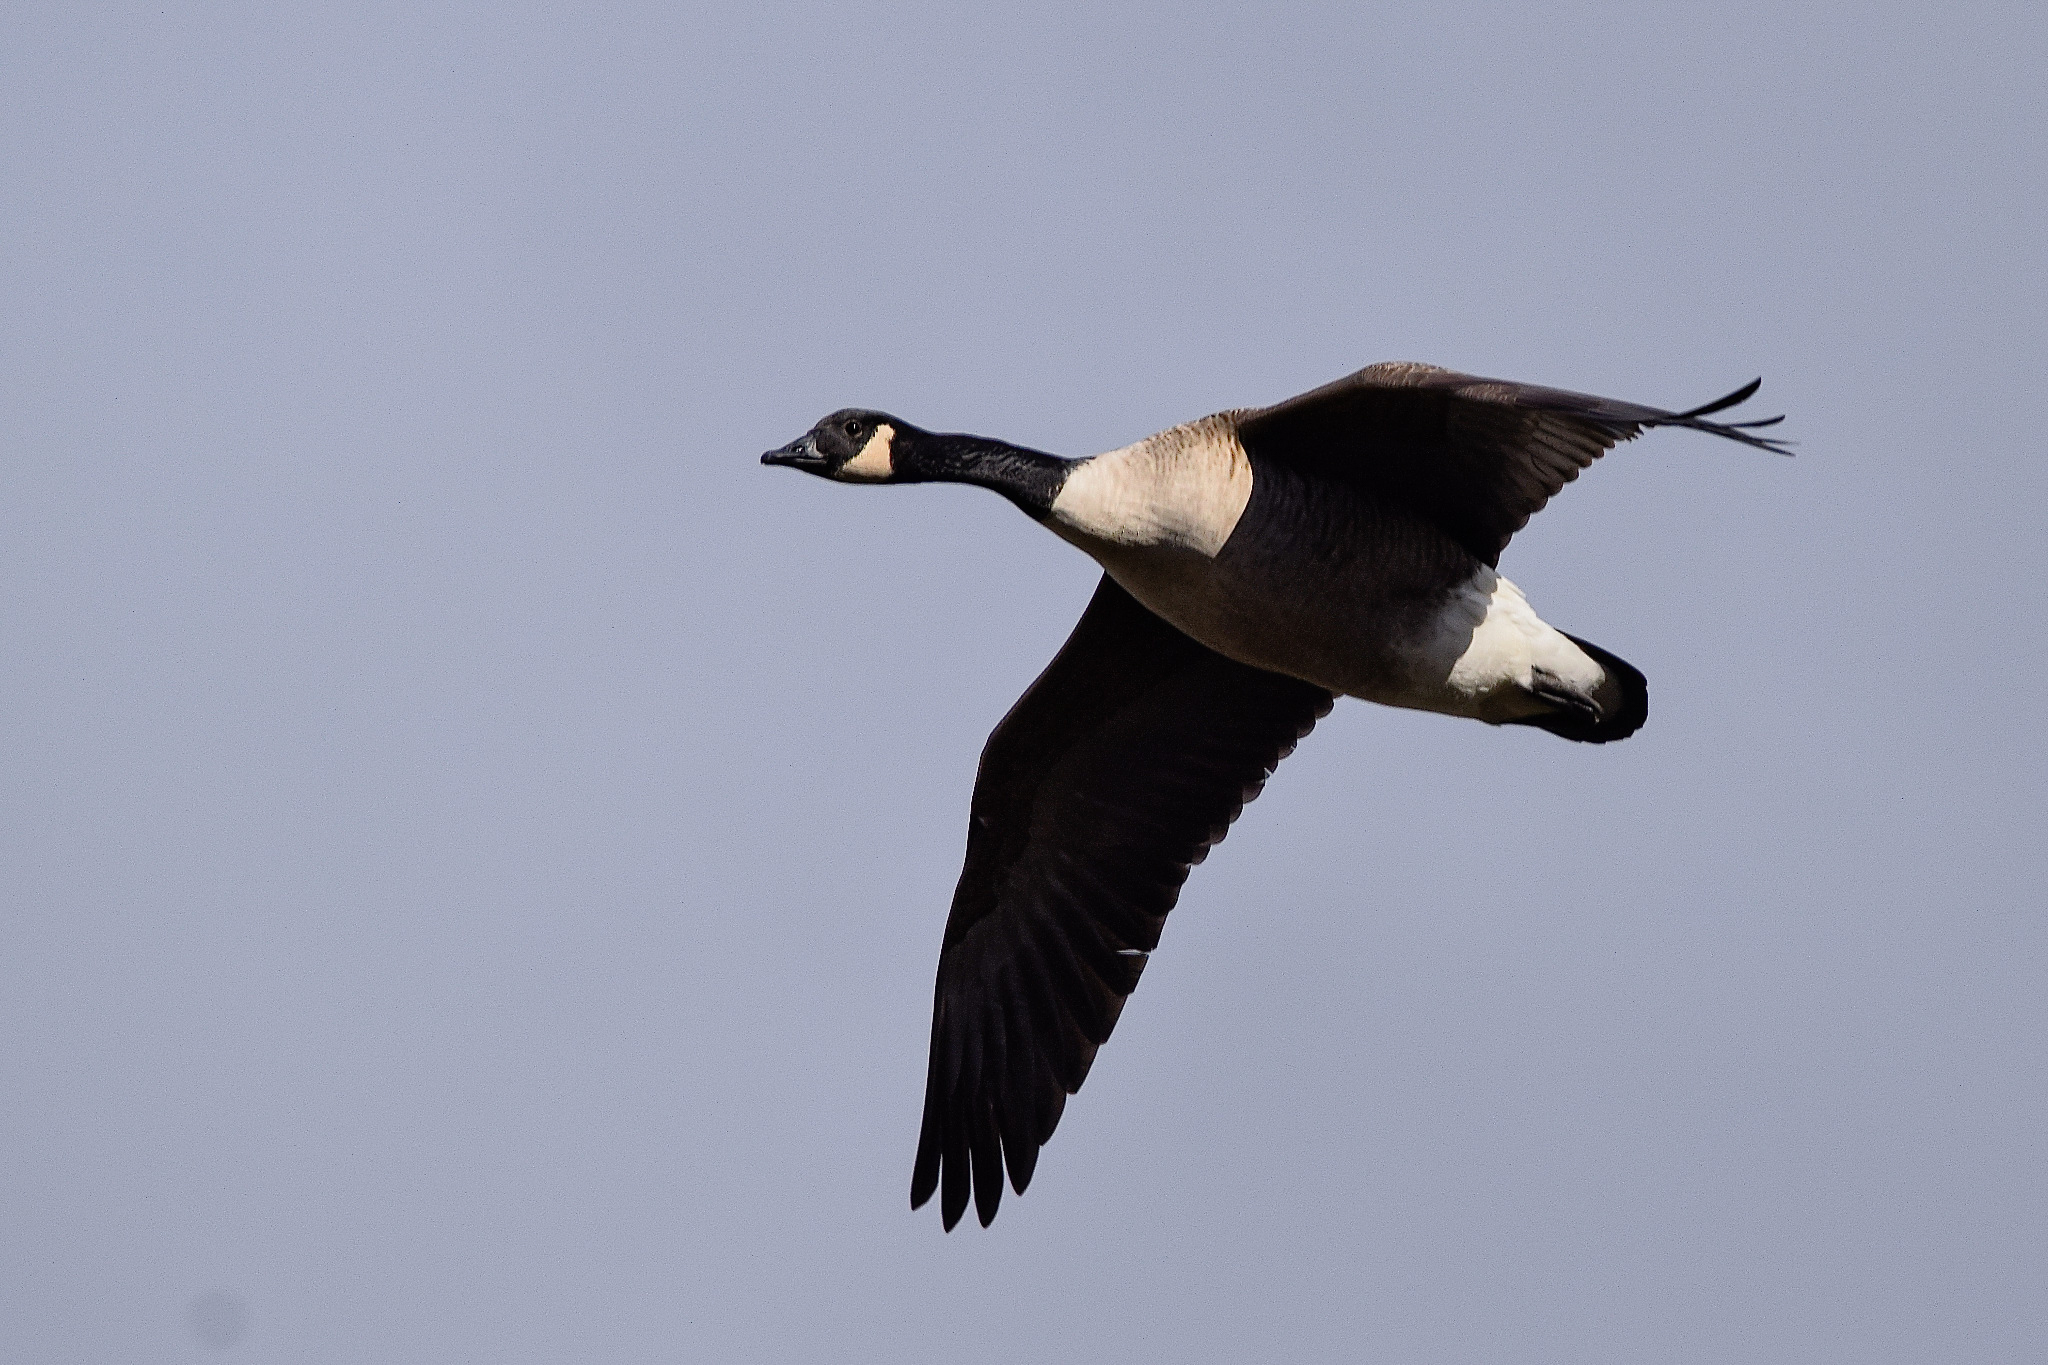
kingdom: Animalia
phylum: Chordata
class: Aves
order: Anseriformes
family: Anatidae
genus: Branta
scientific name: Branta canadensis
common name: Canada goose
